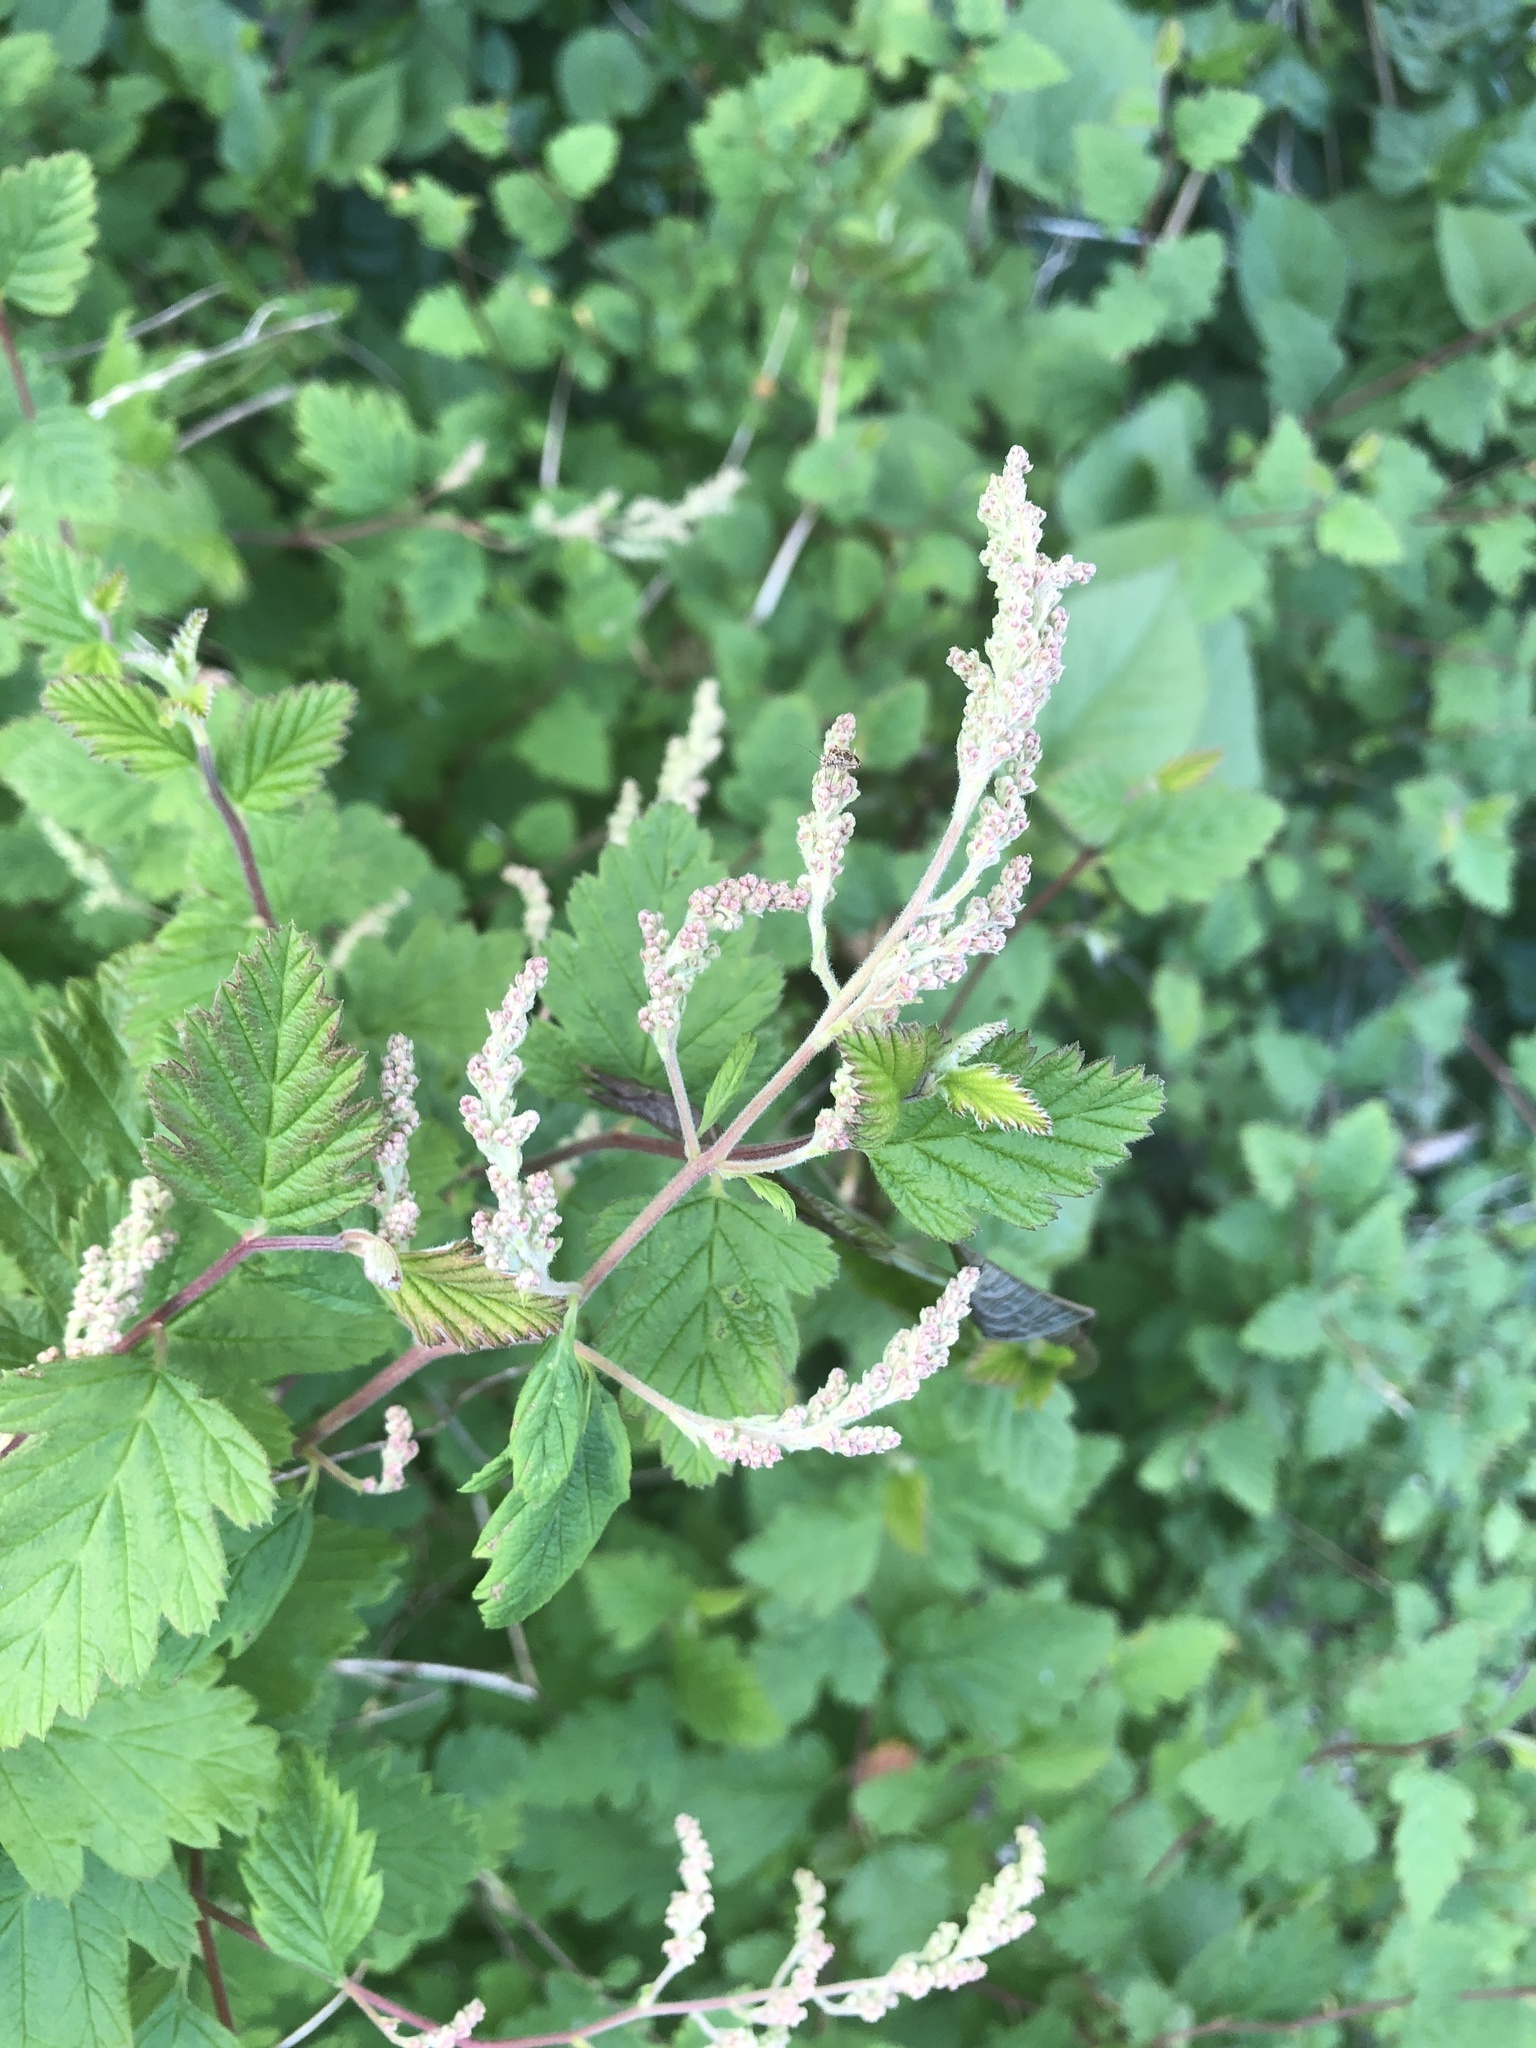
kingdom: Plantae
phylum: Tracheophyta
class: Magnoliopsida
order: Rosales
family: Rosaceae
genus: Holodiscus
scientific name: Holodiscus discolor
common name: Oceanspray
